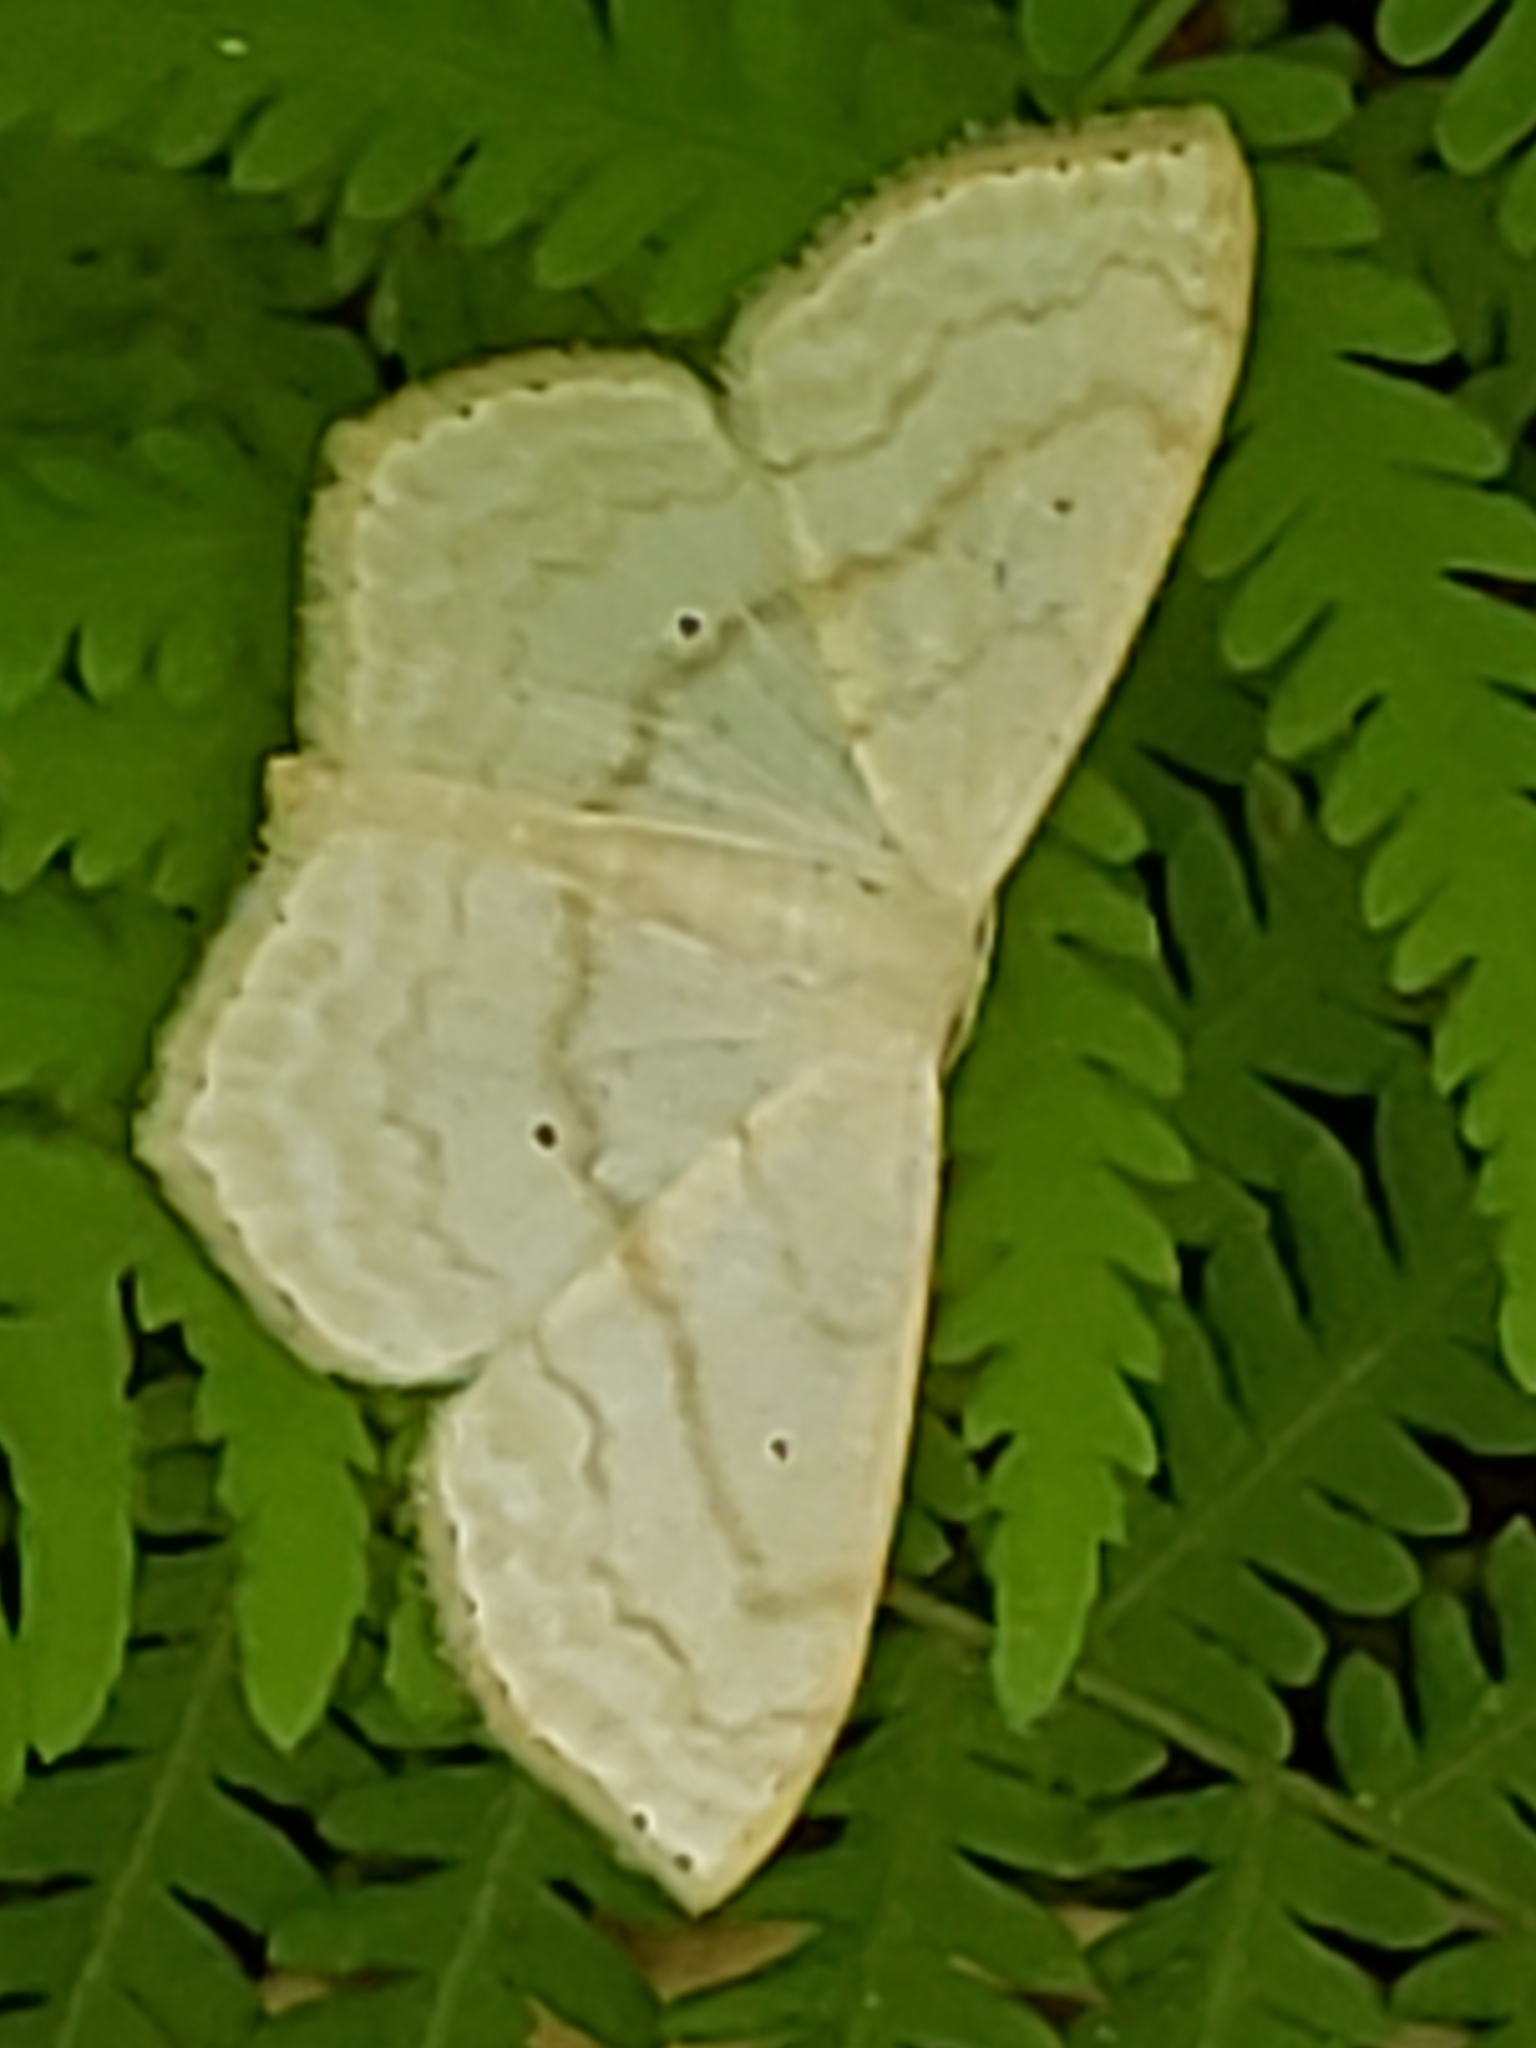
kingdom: Animalia
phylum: Arthropoda
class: Insecta
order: Lepidoptera
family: Geometridae
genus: Scopula
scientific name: Scopula limboundata
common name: Large lace border
